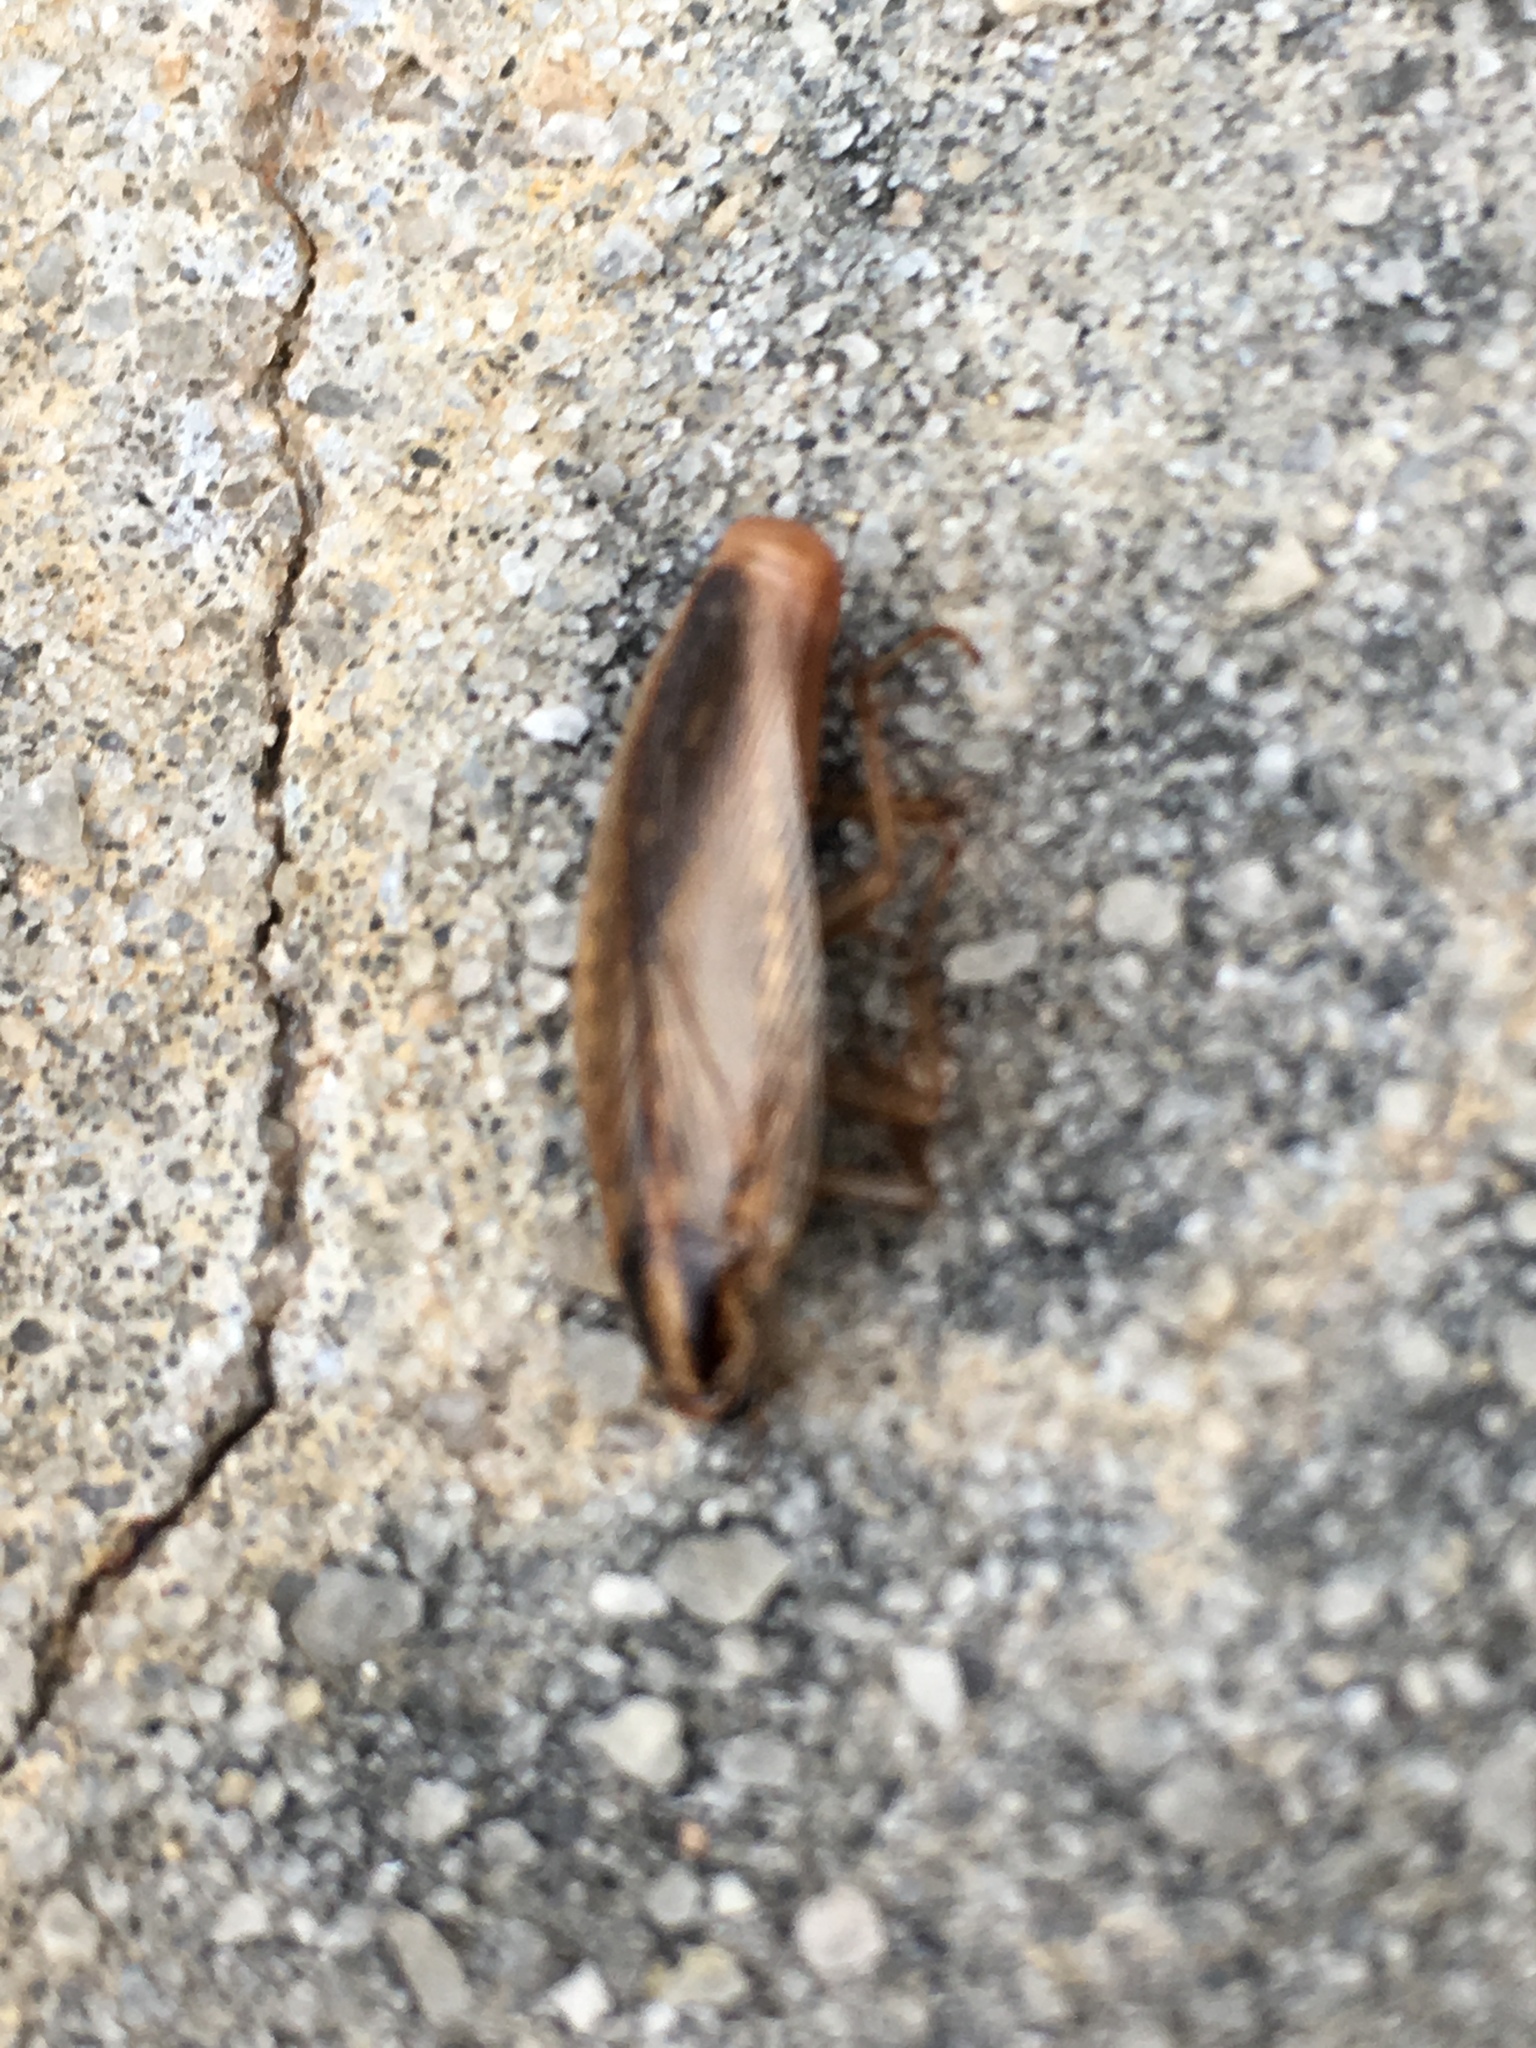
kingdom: Animalia
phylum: Arthropoda
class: Insecta
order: Blattodea
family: Ectobiidae
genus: Blattella
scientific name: Blattella asahinai
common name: Asian cockroach
